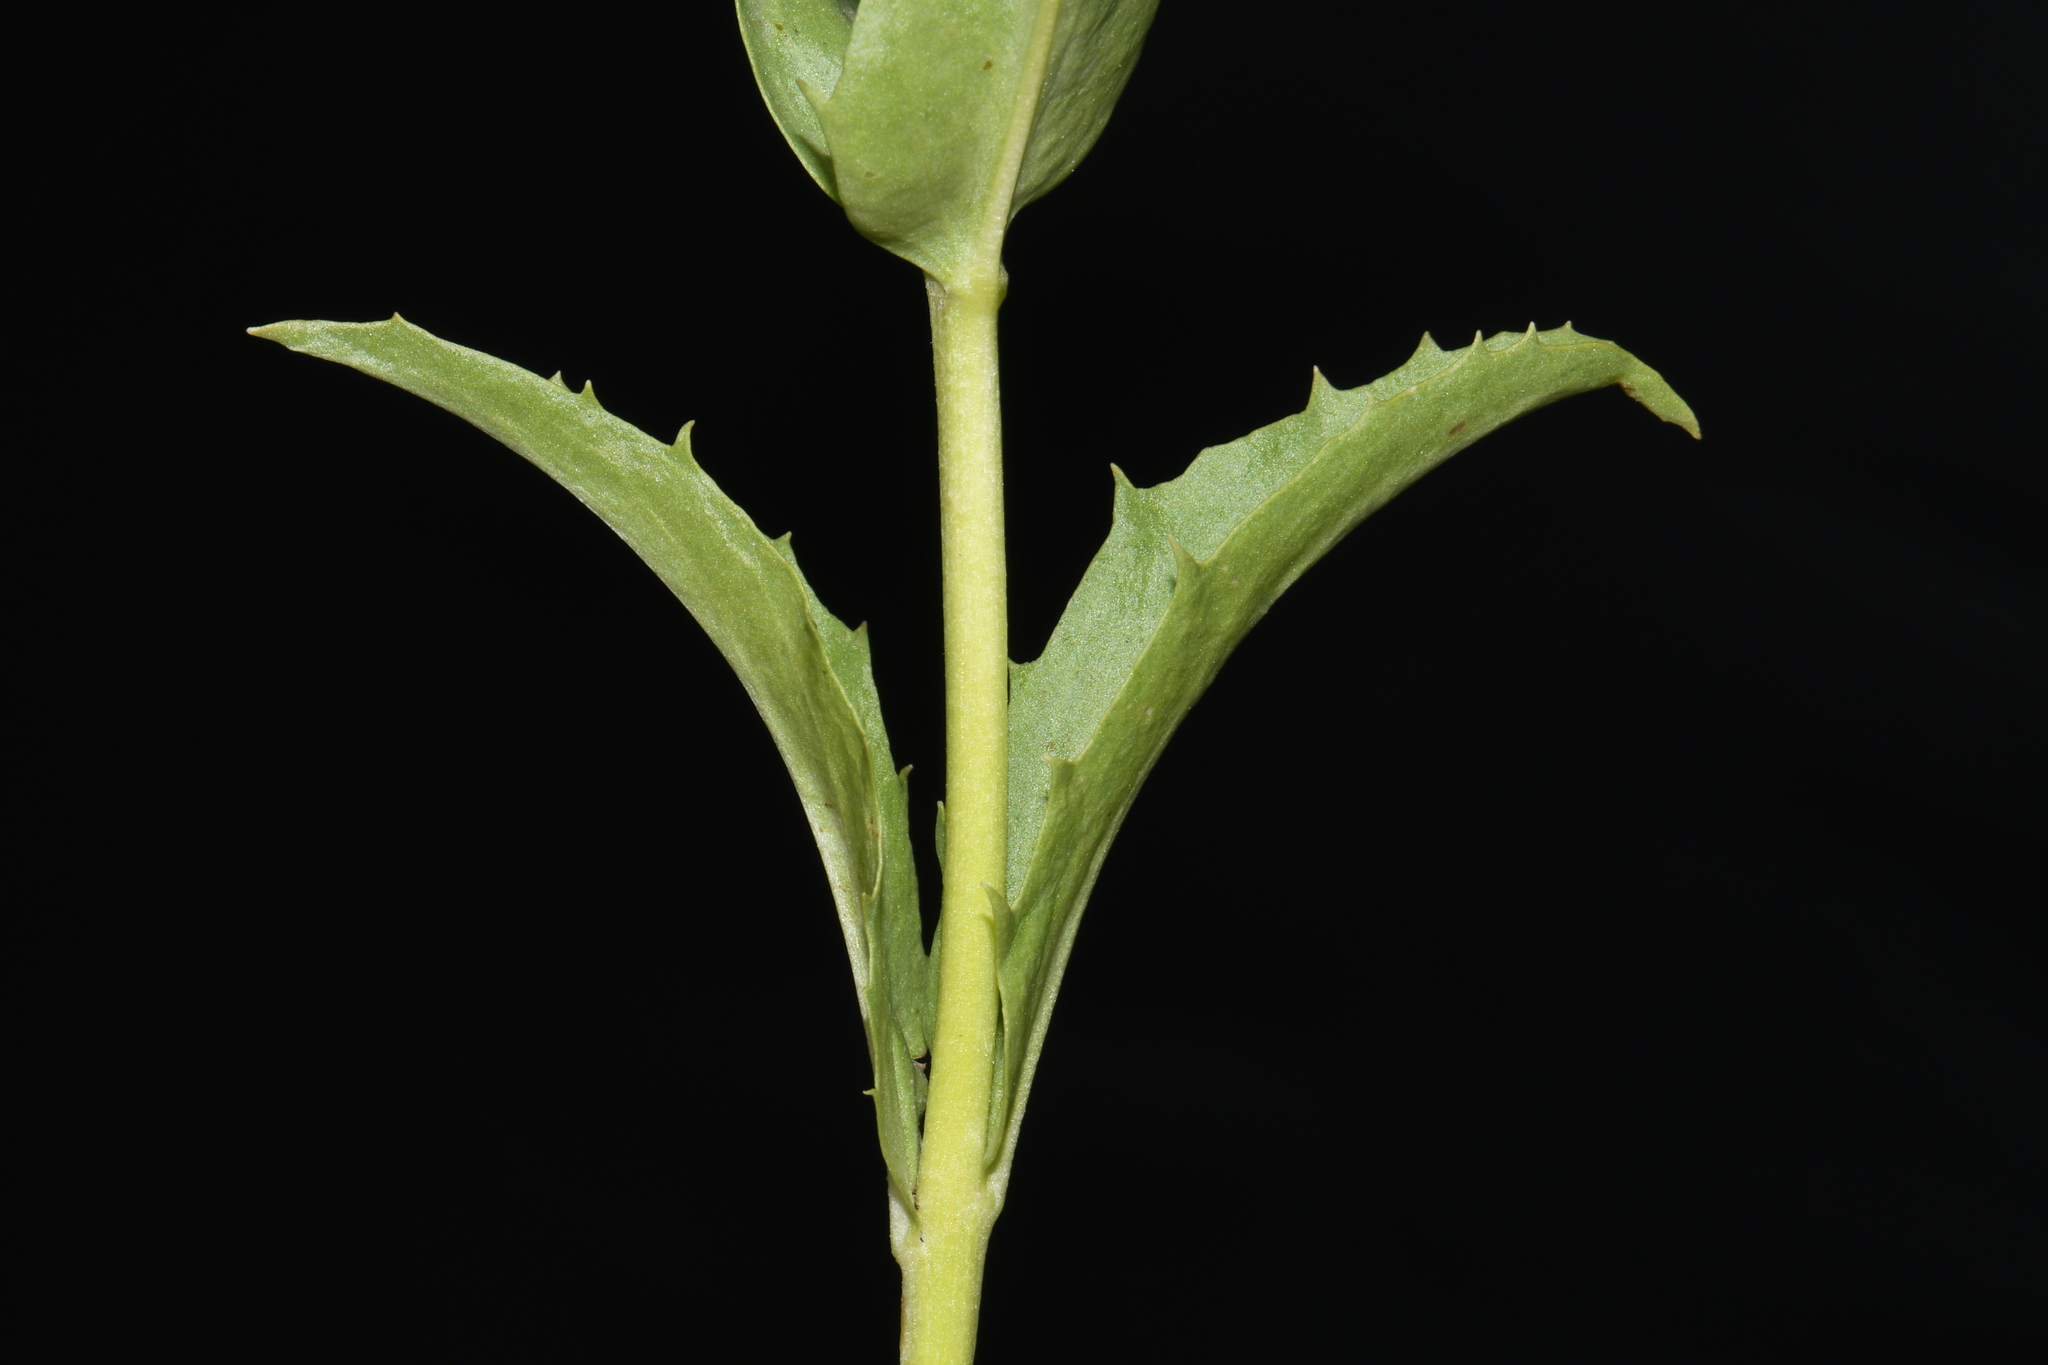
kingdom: Plantae
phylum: Tracheophyta
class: Magnoliopsida
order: Lamiales
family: Plantaginaceae
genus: Penstemon
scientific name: Penstemon deustus
